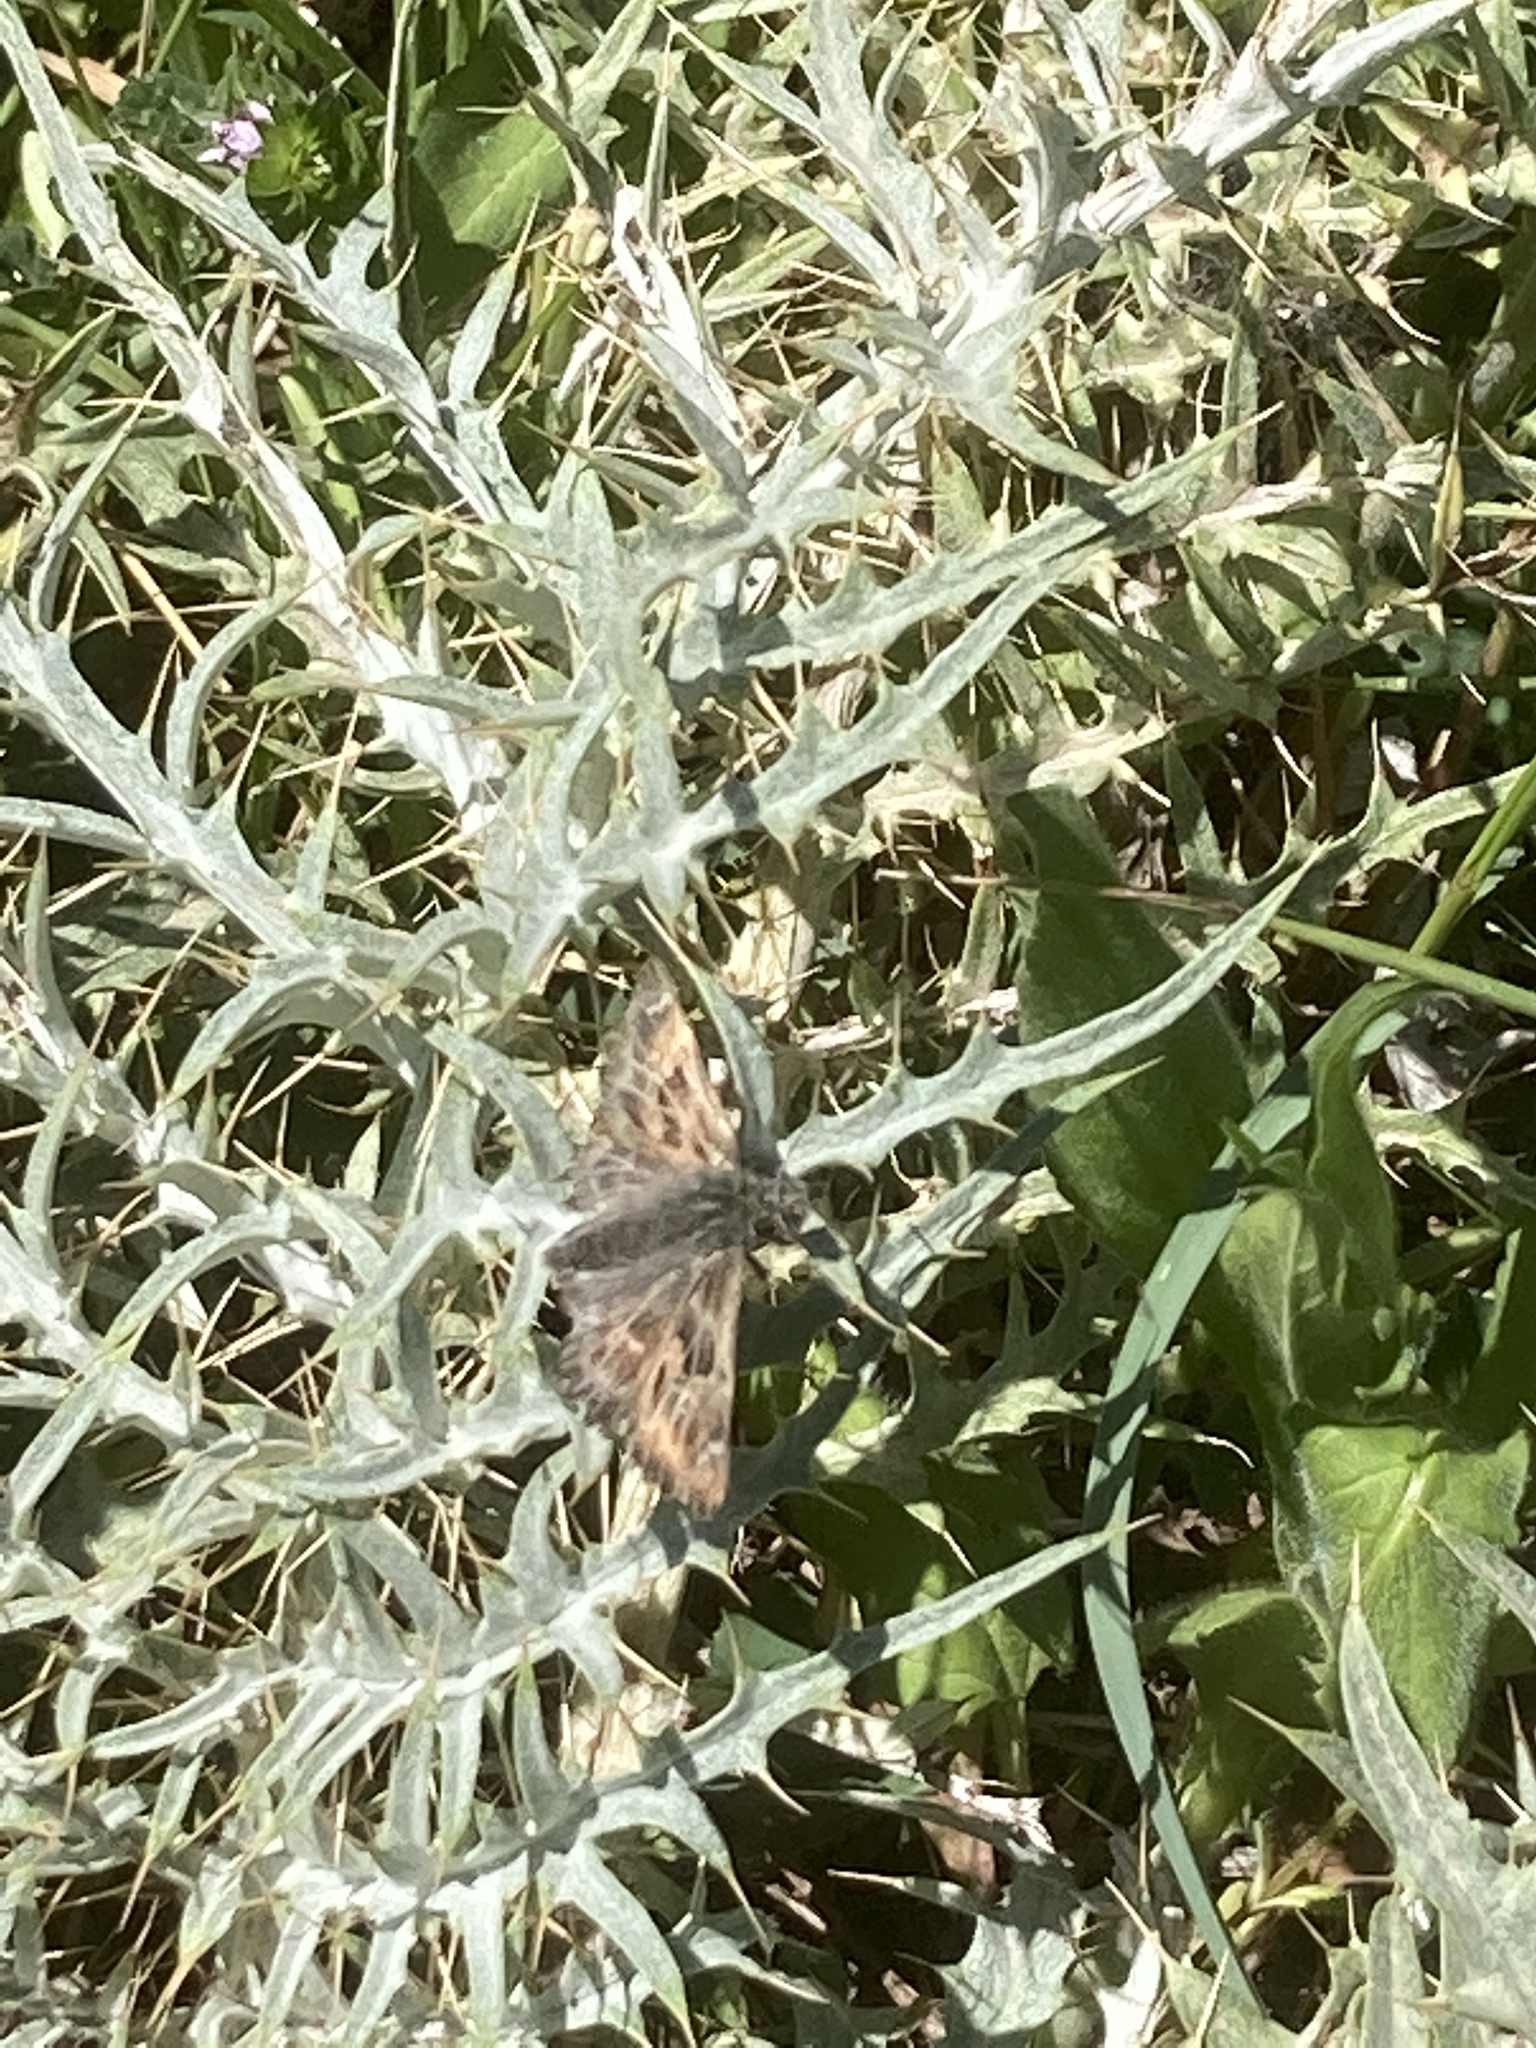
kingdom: Animalia
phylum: Arthropoda
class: Insecta
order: Lepidoptera
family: Hesperiidae
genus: Carcharodus
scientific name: Carcharodus alceae
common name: Mallow skipper
